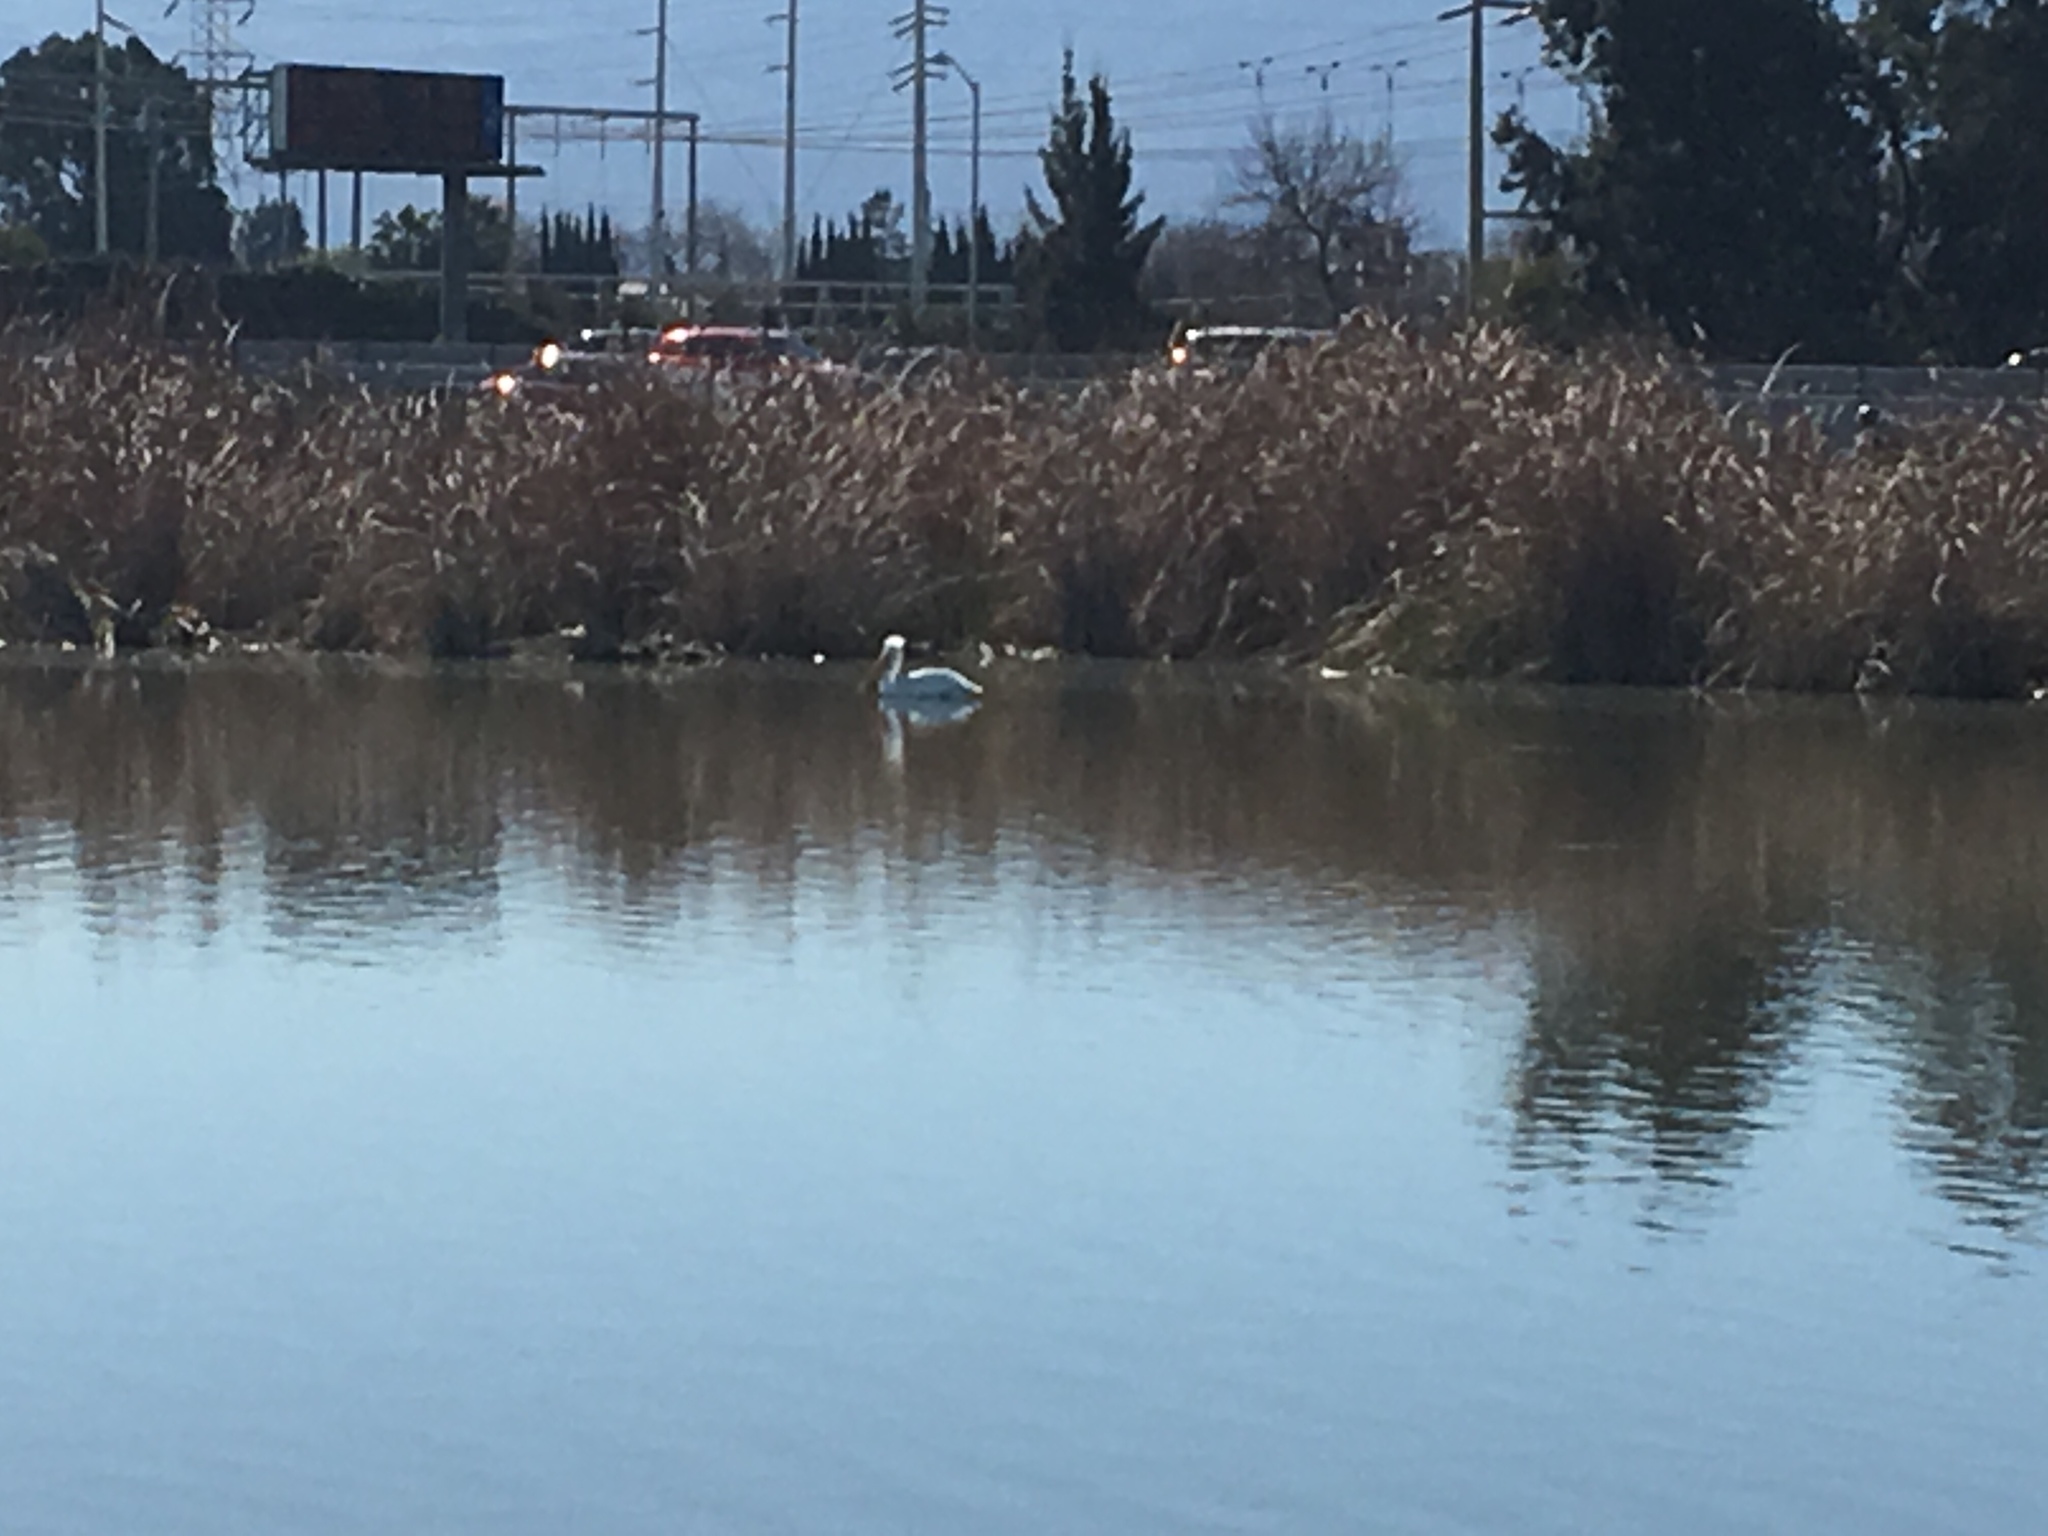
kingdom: Animalia
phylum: Chordata
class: Aves
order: Pelecaniformes
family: Pelecanidae
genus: Pelecanus
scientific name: Pelecanus erythrorhynchos
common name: American white pelican
